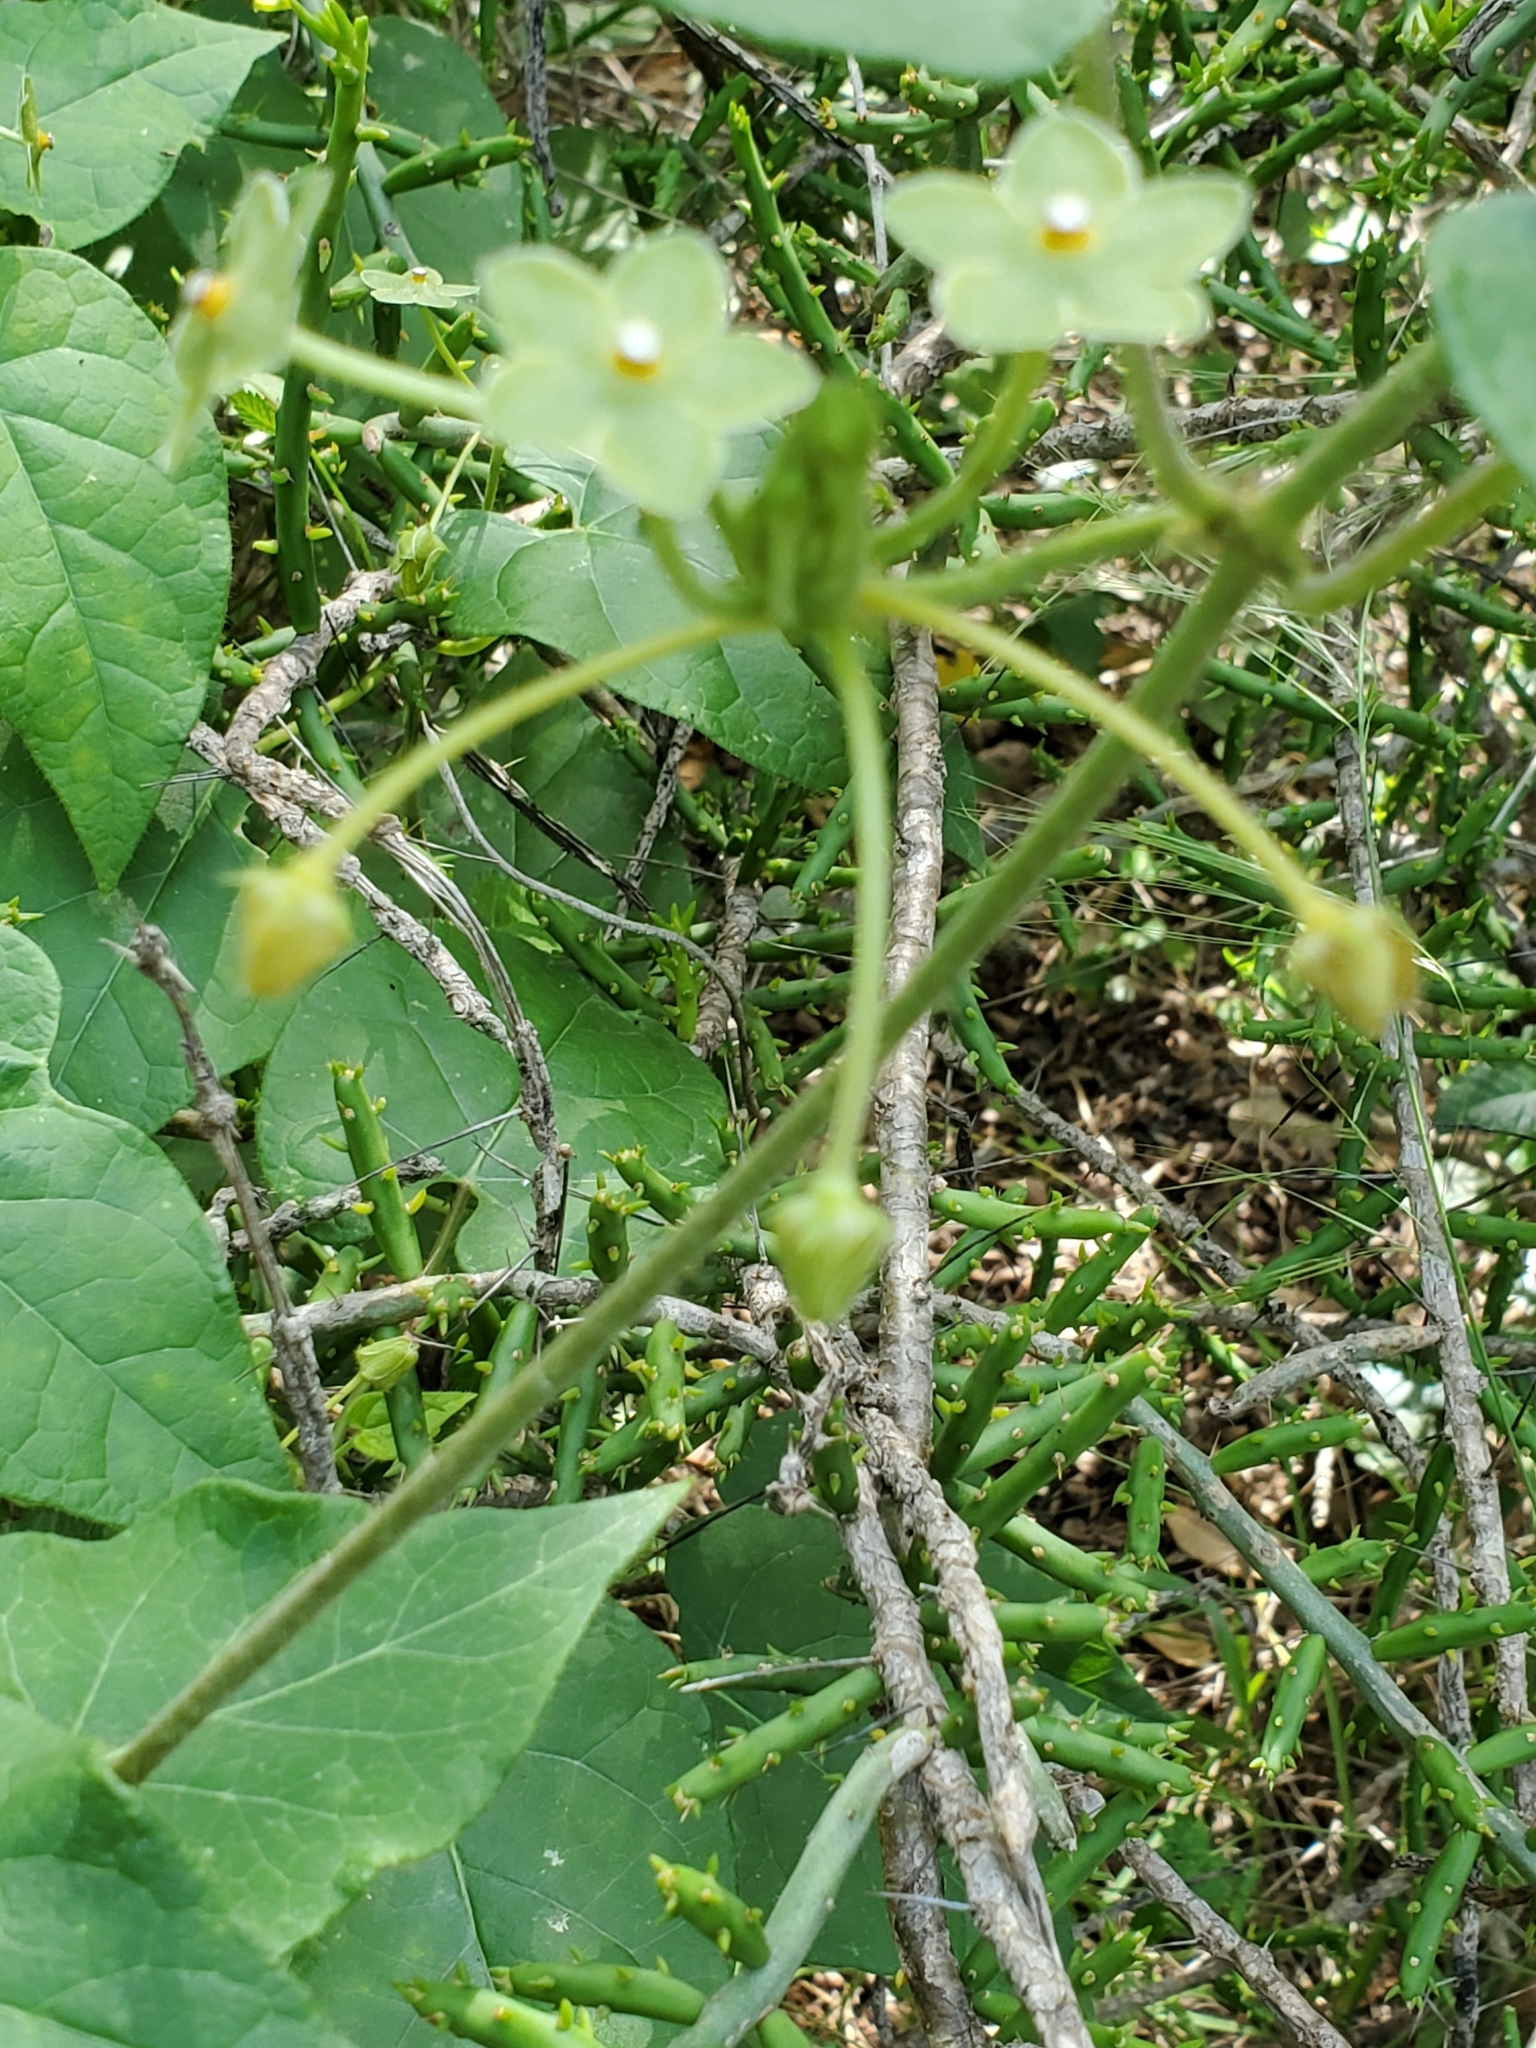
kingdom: Plantae
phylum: Tracheophyta
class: Magnoliopsida
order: Gentianales
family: Apocynaceae
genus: Dictyanthus
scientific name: Dictyanthus reticulatus
